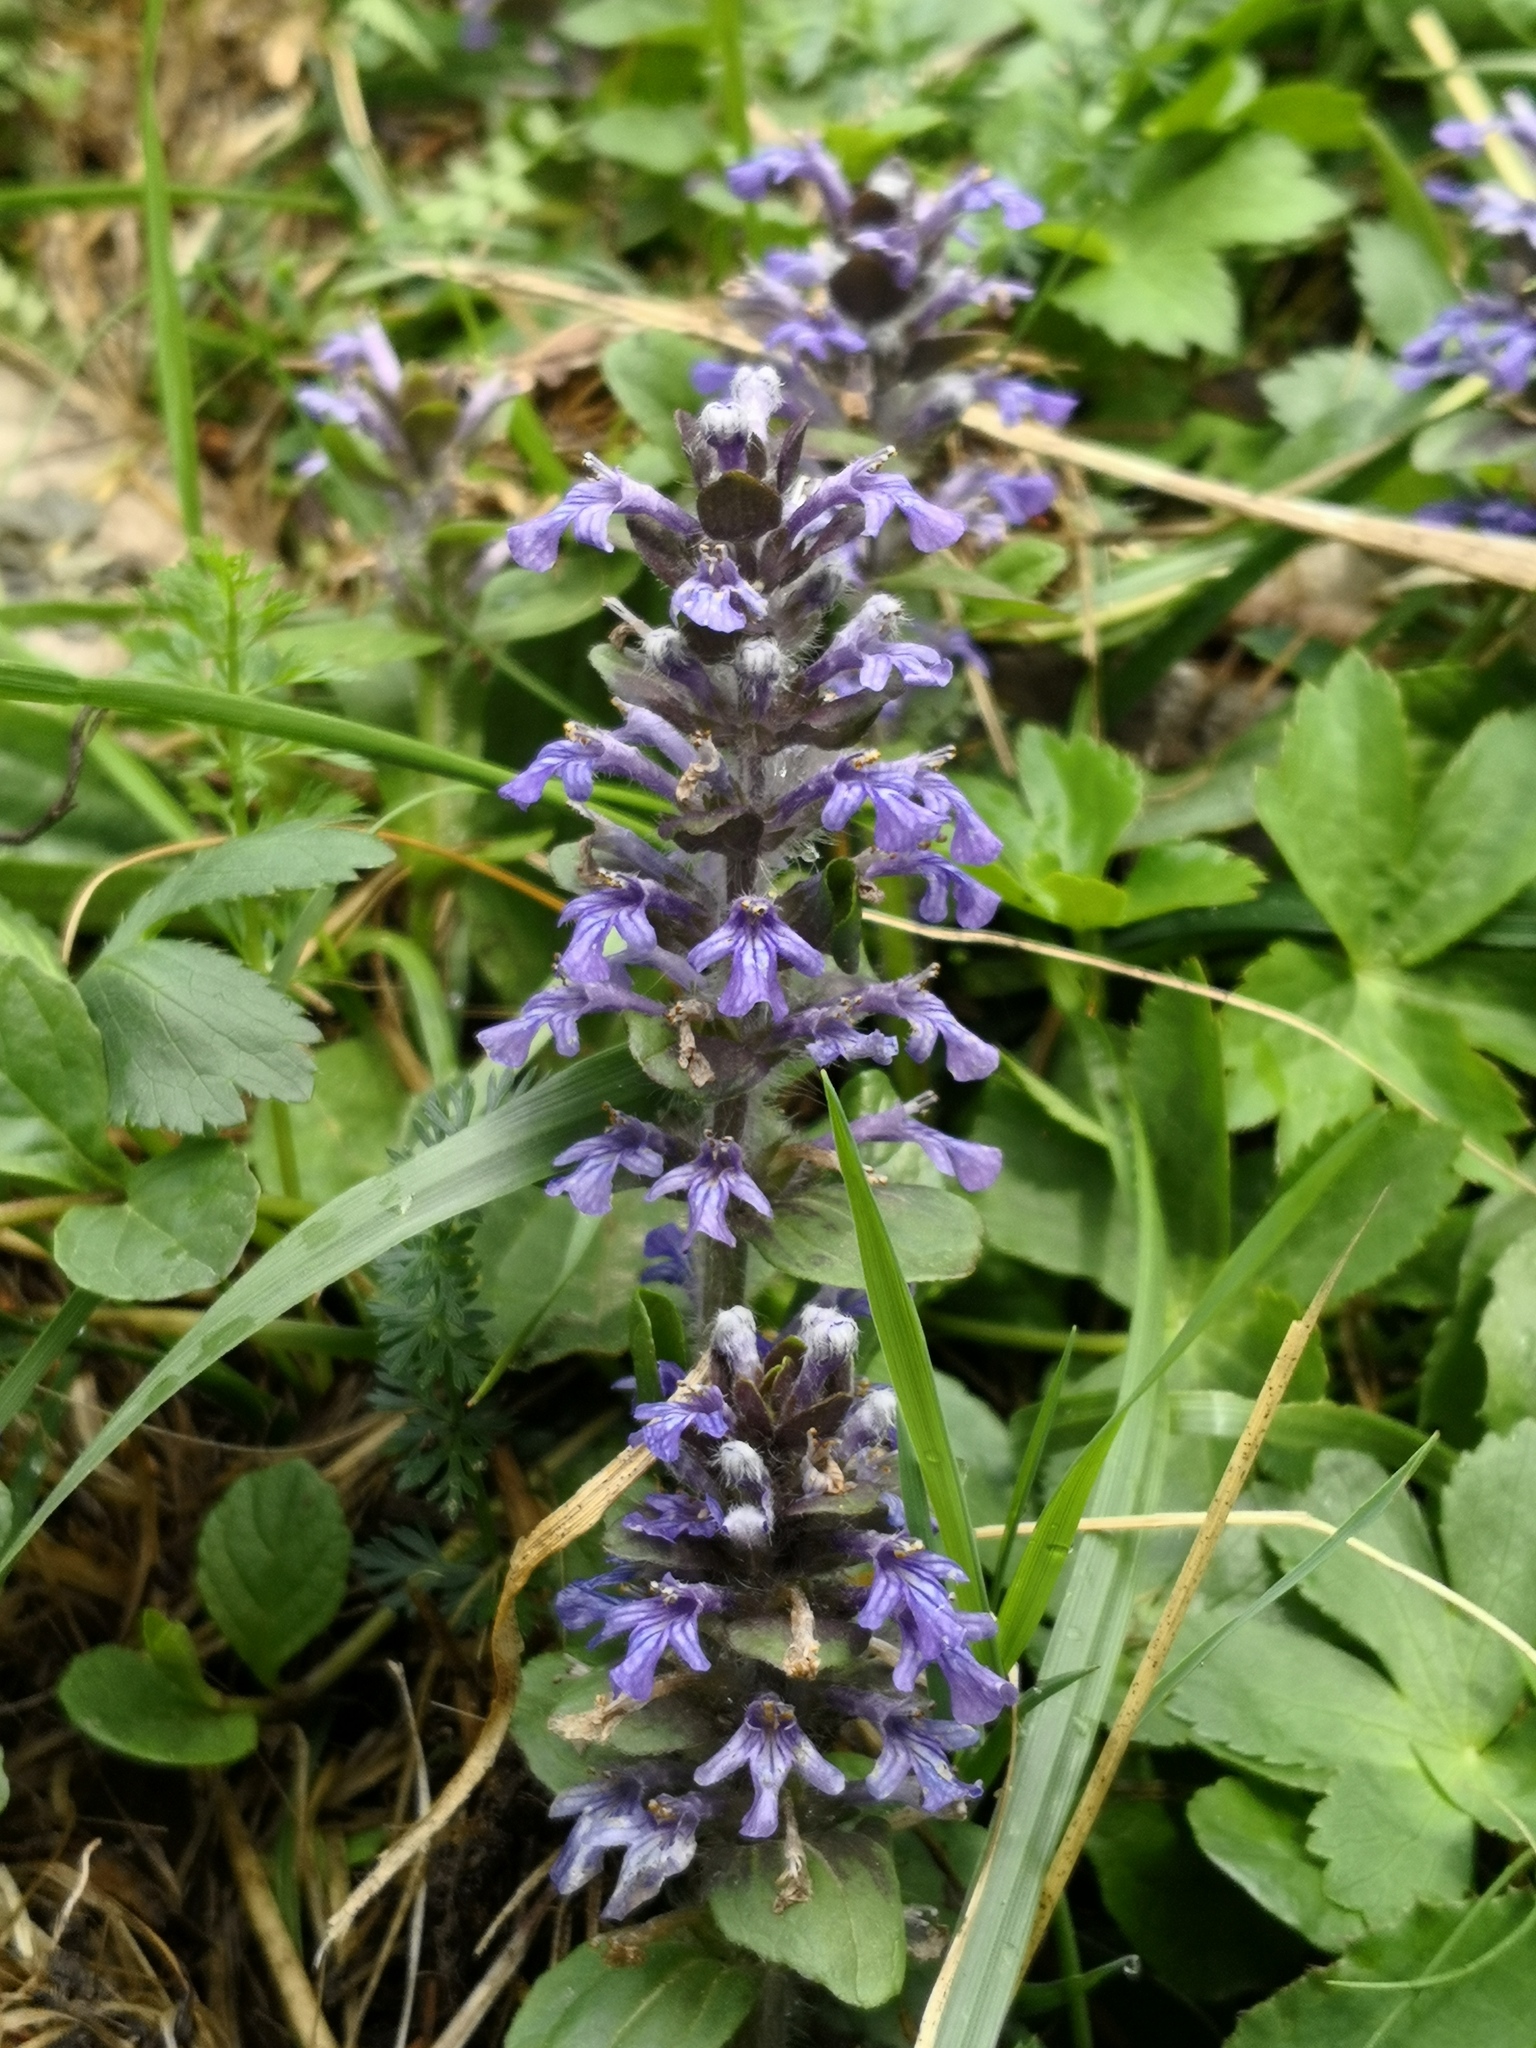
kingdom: Plantae
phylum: Tracheophyta
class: Magnoliopsida
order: Lamiales
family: Lamiaceae
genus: Ajuga
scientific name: Ajuga reptans
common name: Bugle
